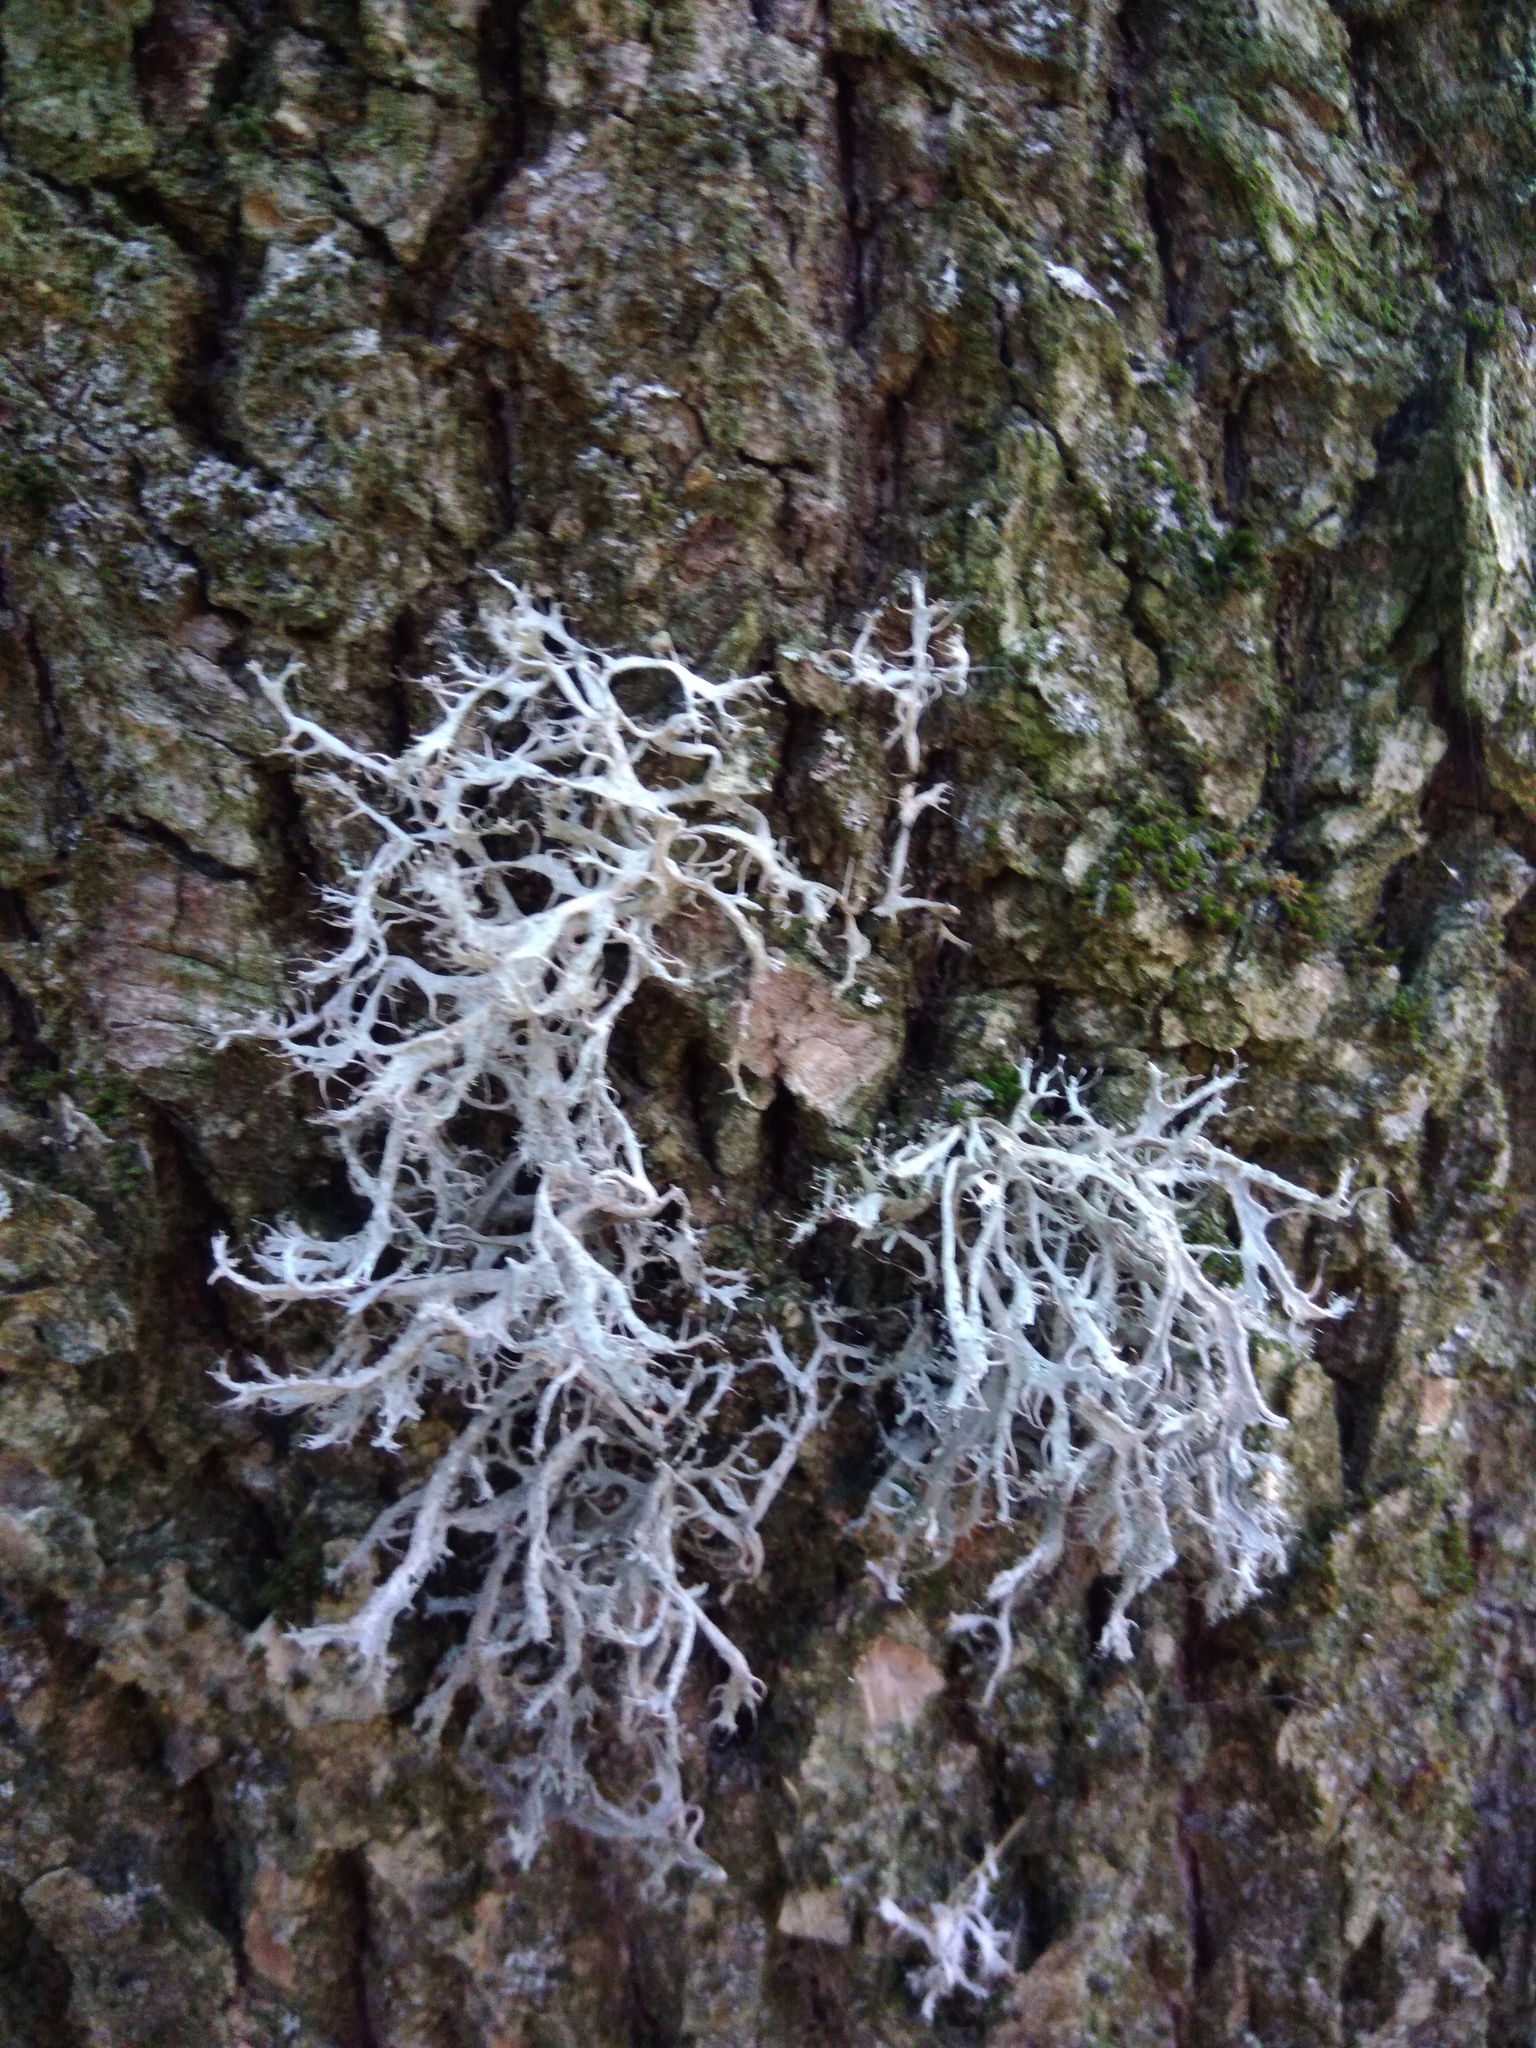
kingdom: Fungi
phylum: Ascomycota
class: Lecanoromycetes
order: Caliciales
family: Physciaceae
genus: Anaptychia
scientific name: Anaptychia ciliaris
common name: Great ciliated lichen
